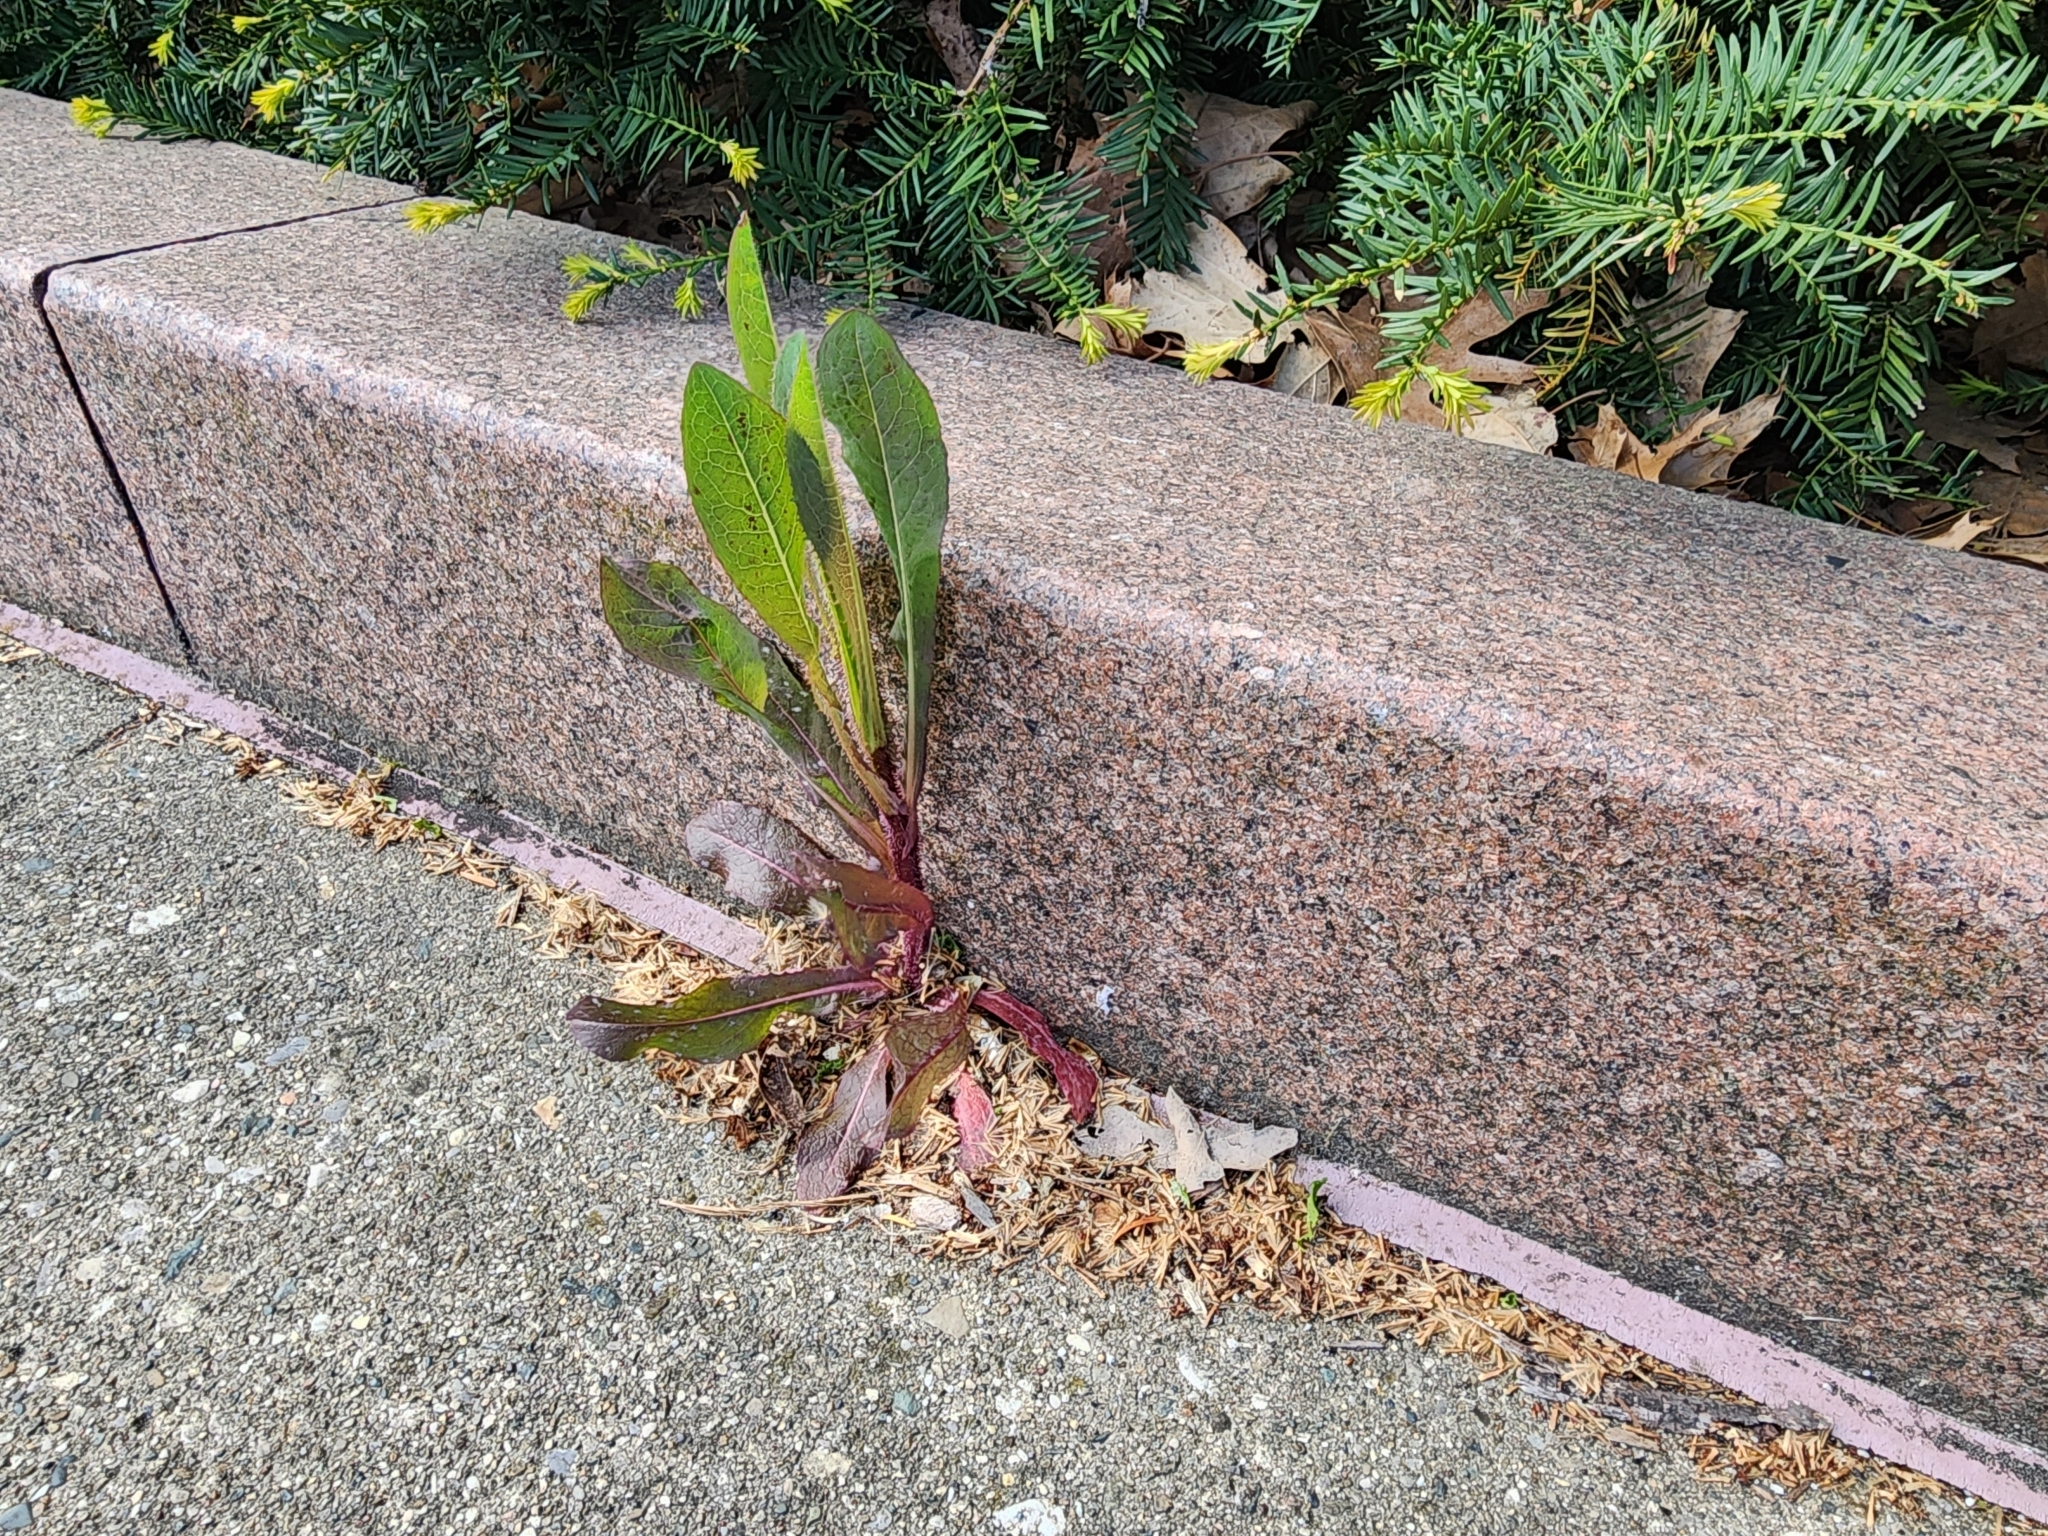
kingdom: Plantae
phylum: Tracheophyta
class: Magnoliopsida
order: Asterales
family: Asteraceae
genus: Lactuca
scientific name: Lactuca serriola
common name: Prickly lettuce
